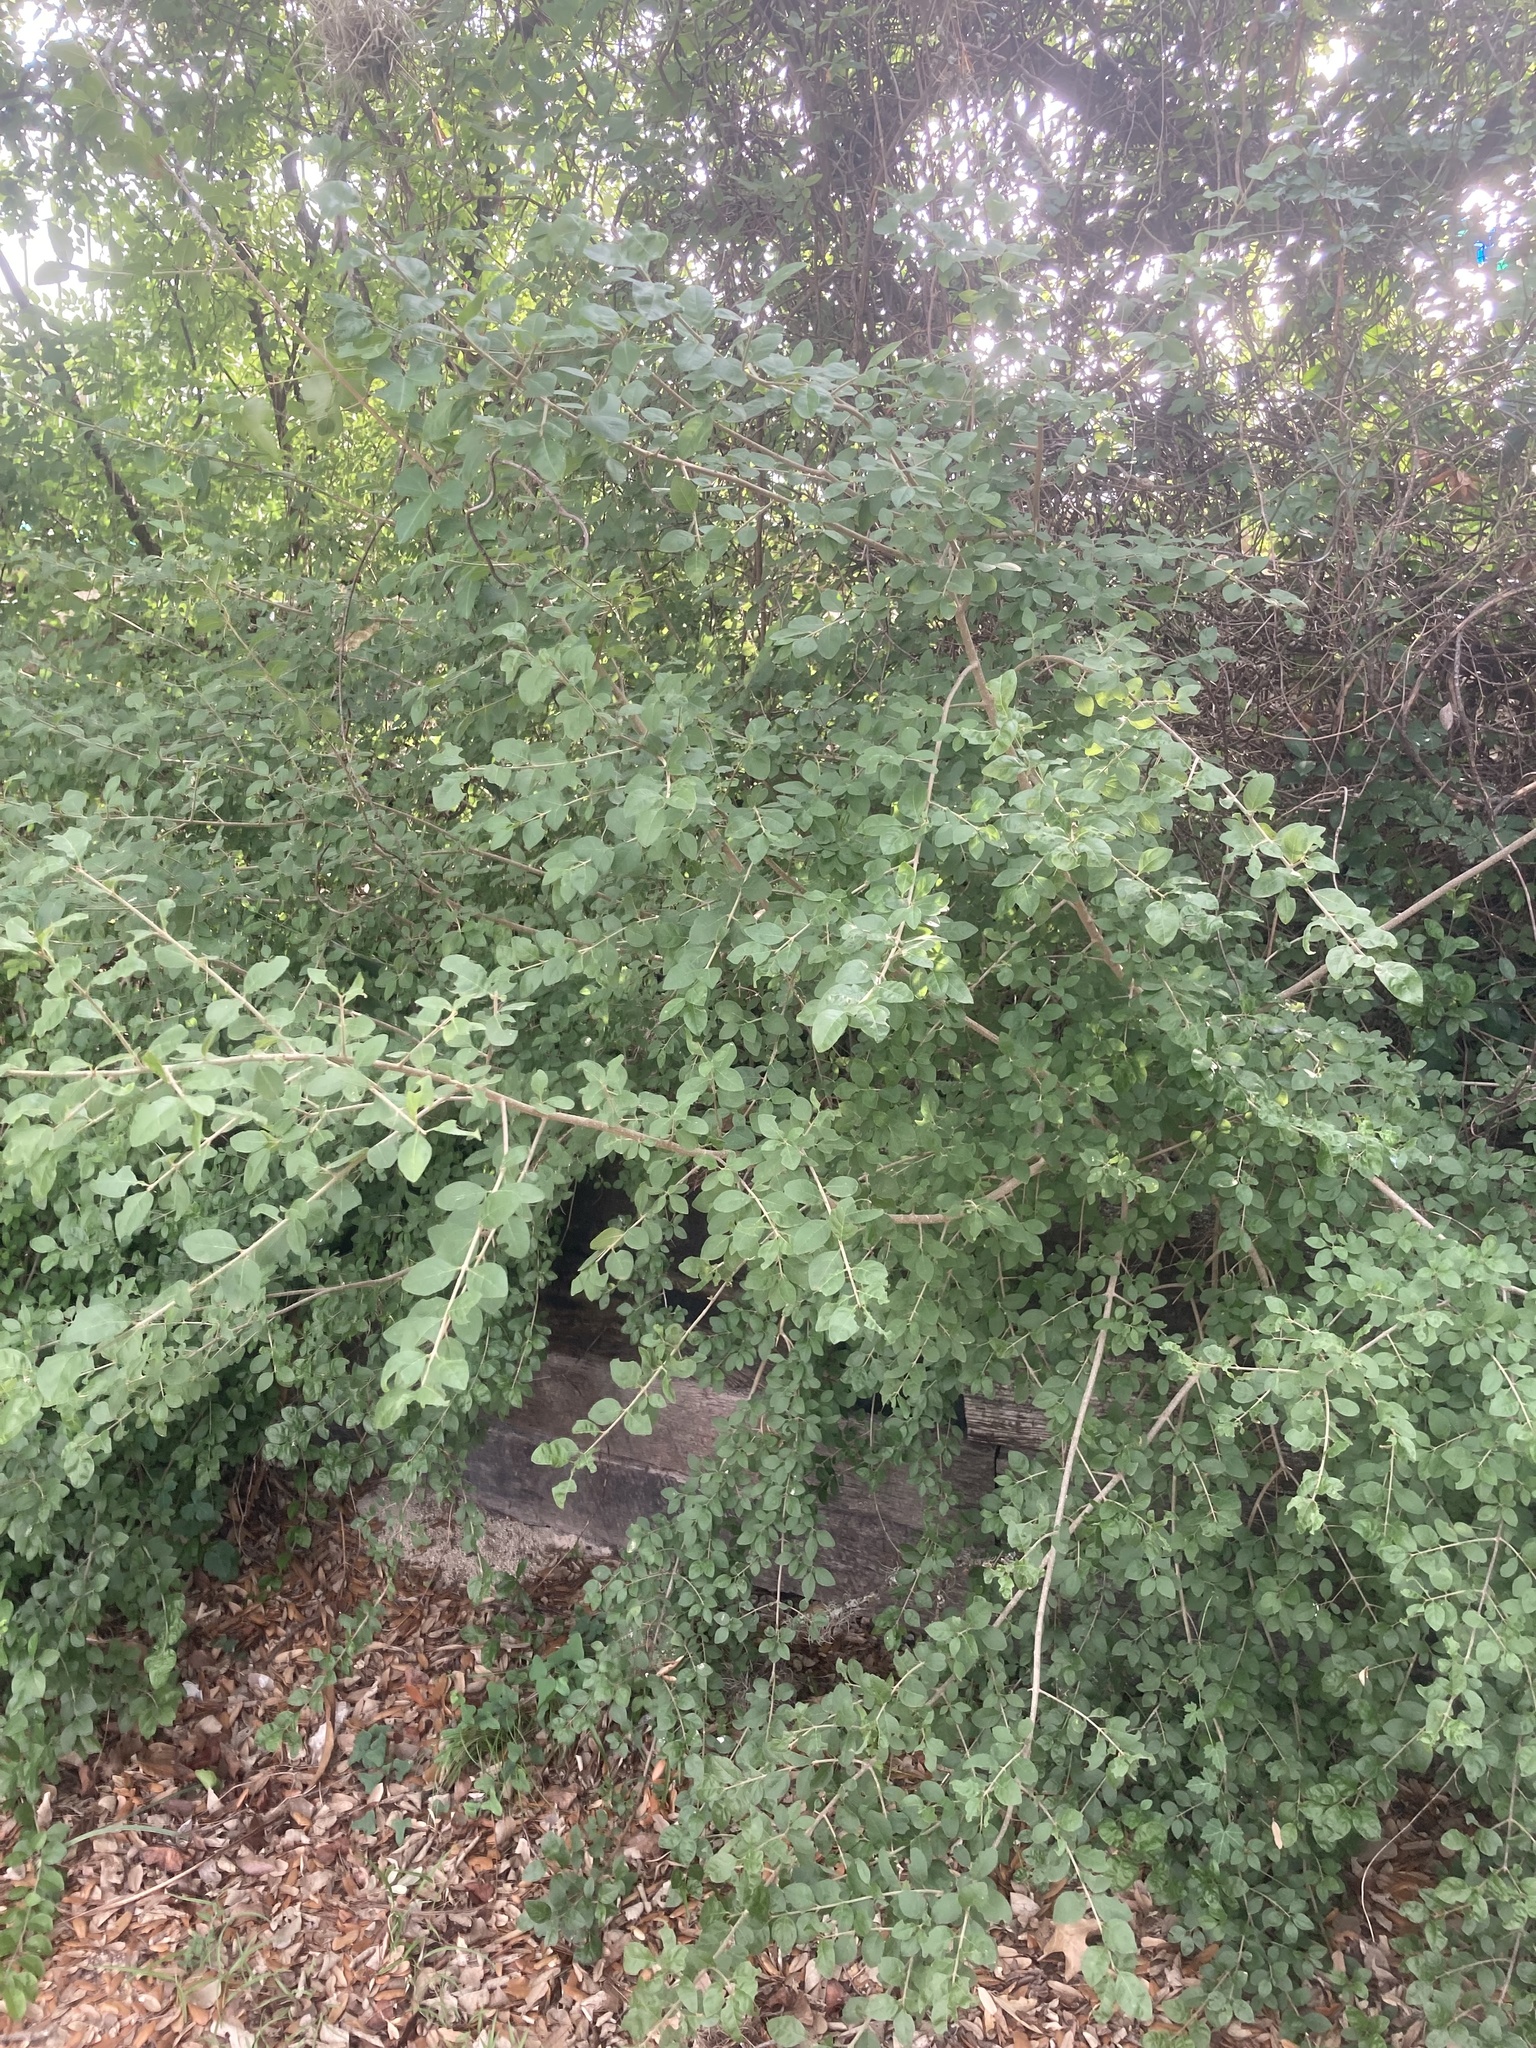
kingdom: Plantae
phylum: Tracheophyta
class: Magnoliopsida
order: Lamiales
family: Oleaceae
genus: Forestiera
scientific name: Forestiera pubescens
